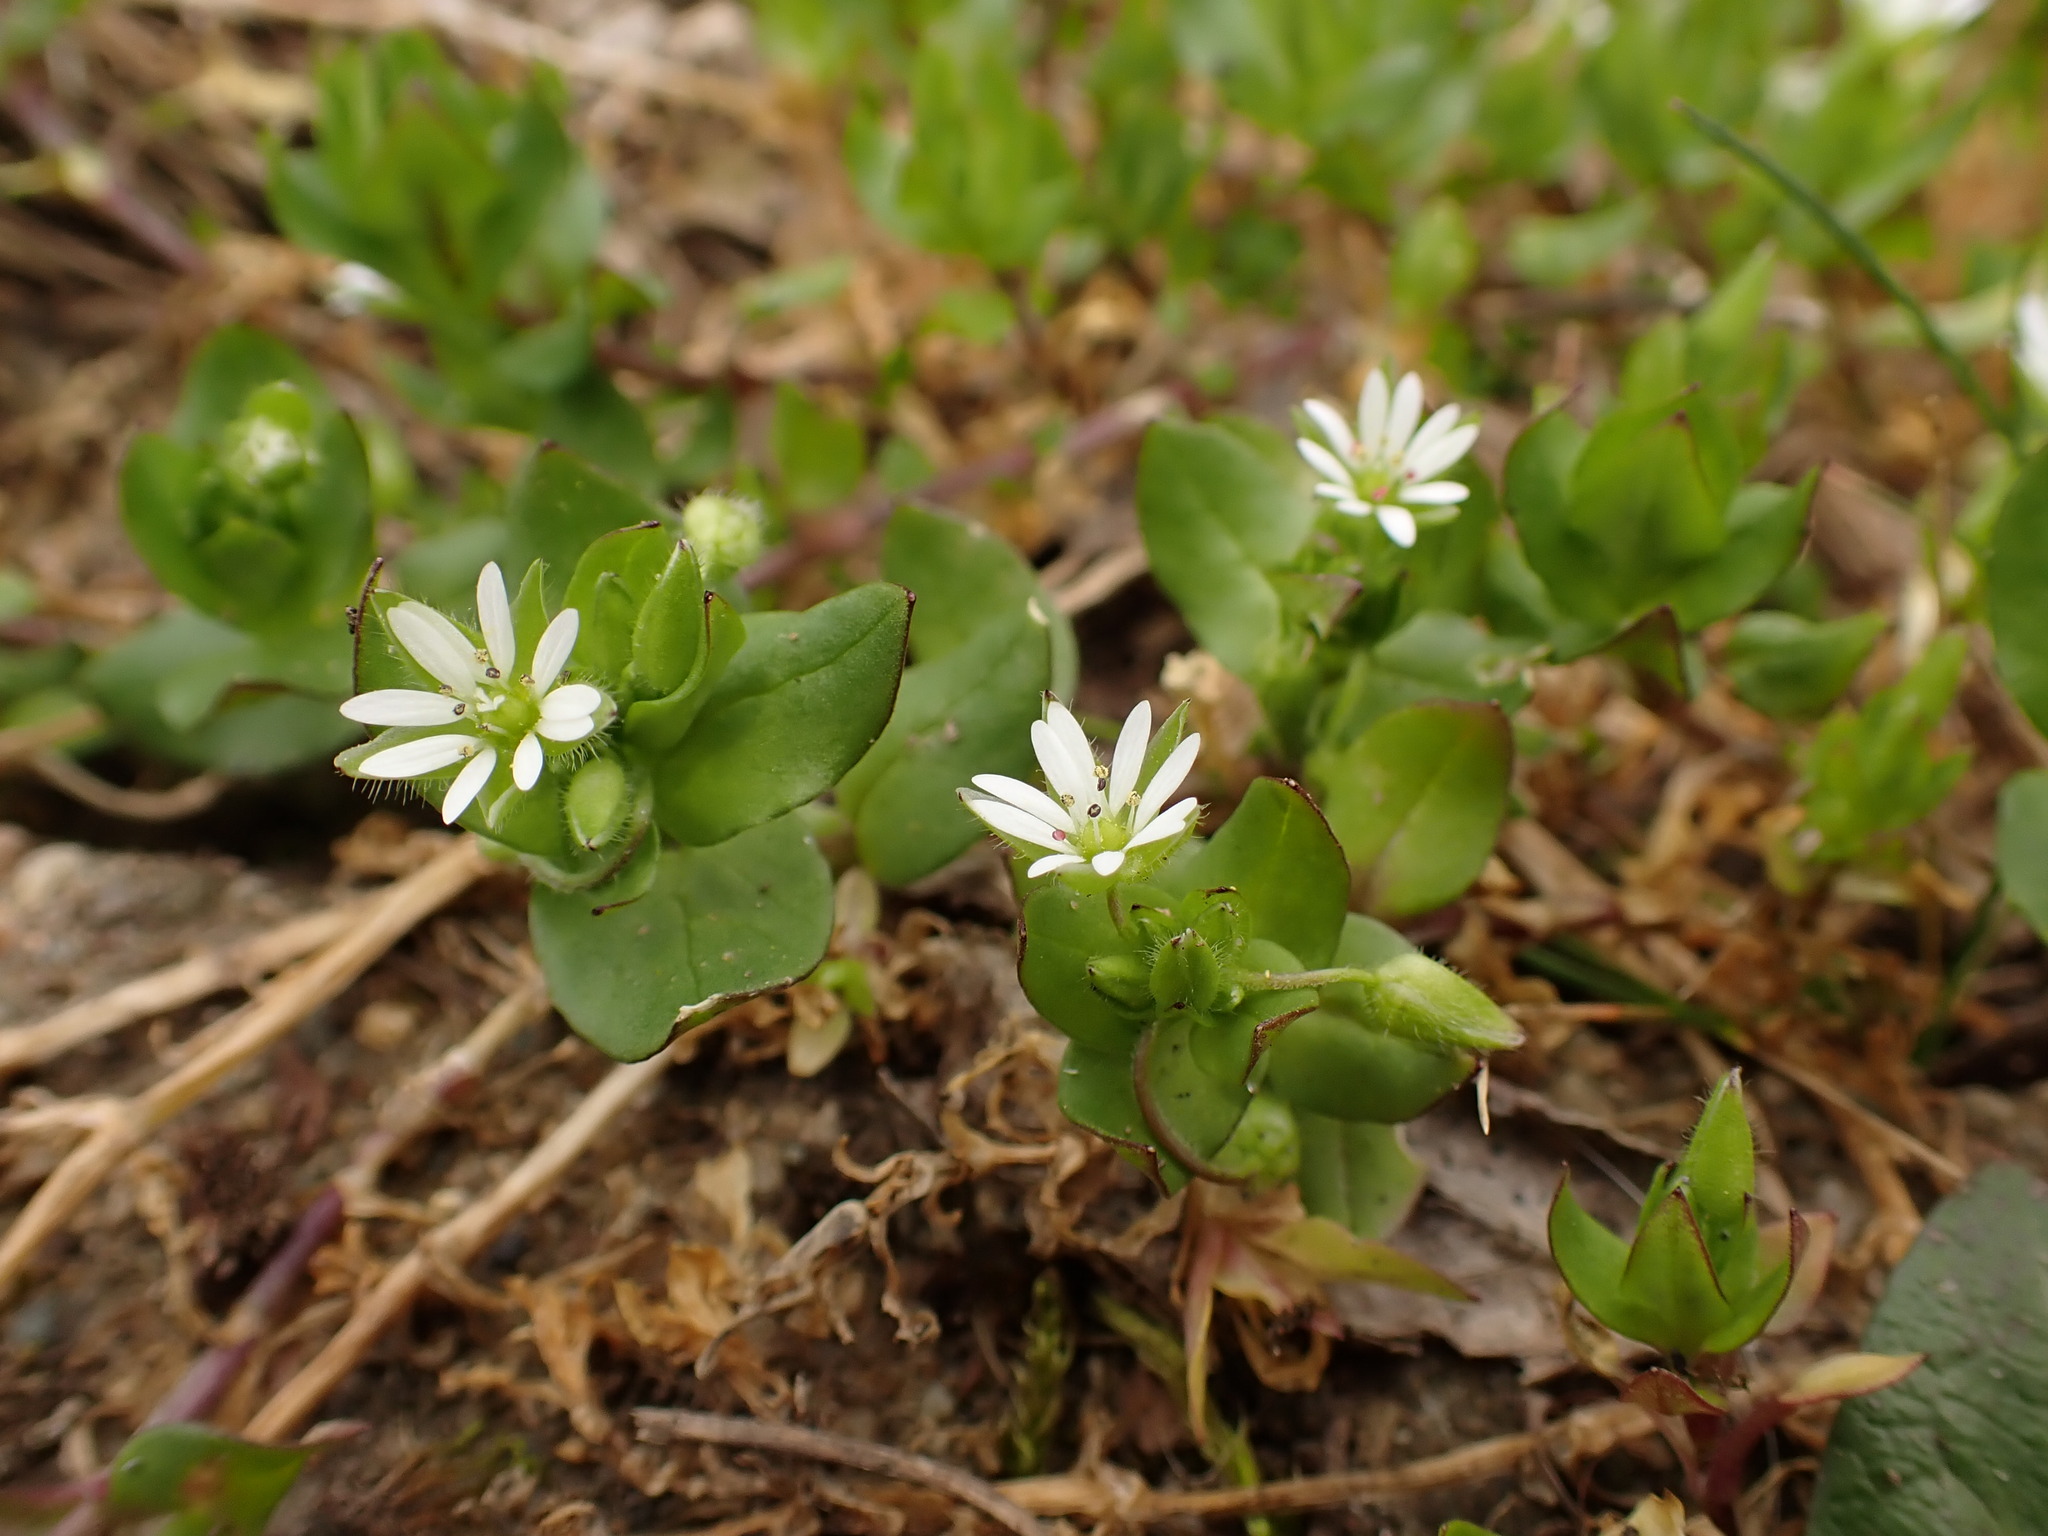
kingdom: Plantae
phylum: Tracheophyta
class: Magnoliopsida
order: Caryophyllales
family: Caryophyllaceae
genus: Stellaria
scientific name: Stellaria ruderalis
